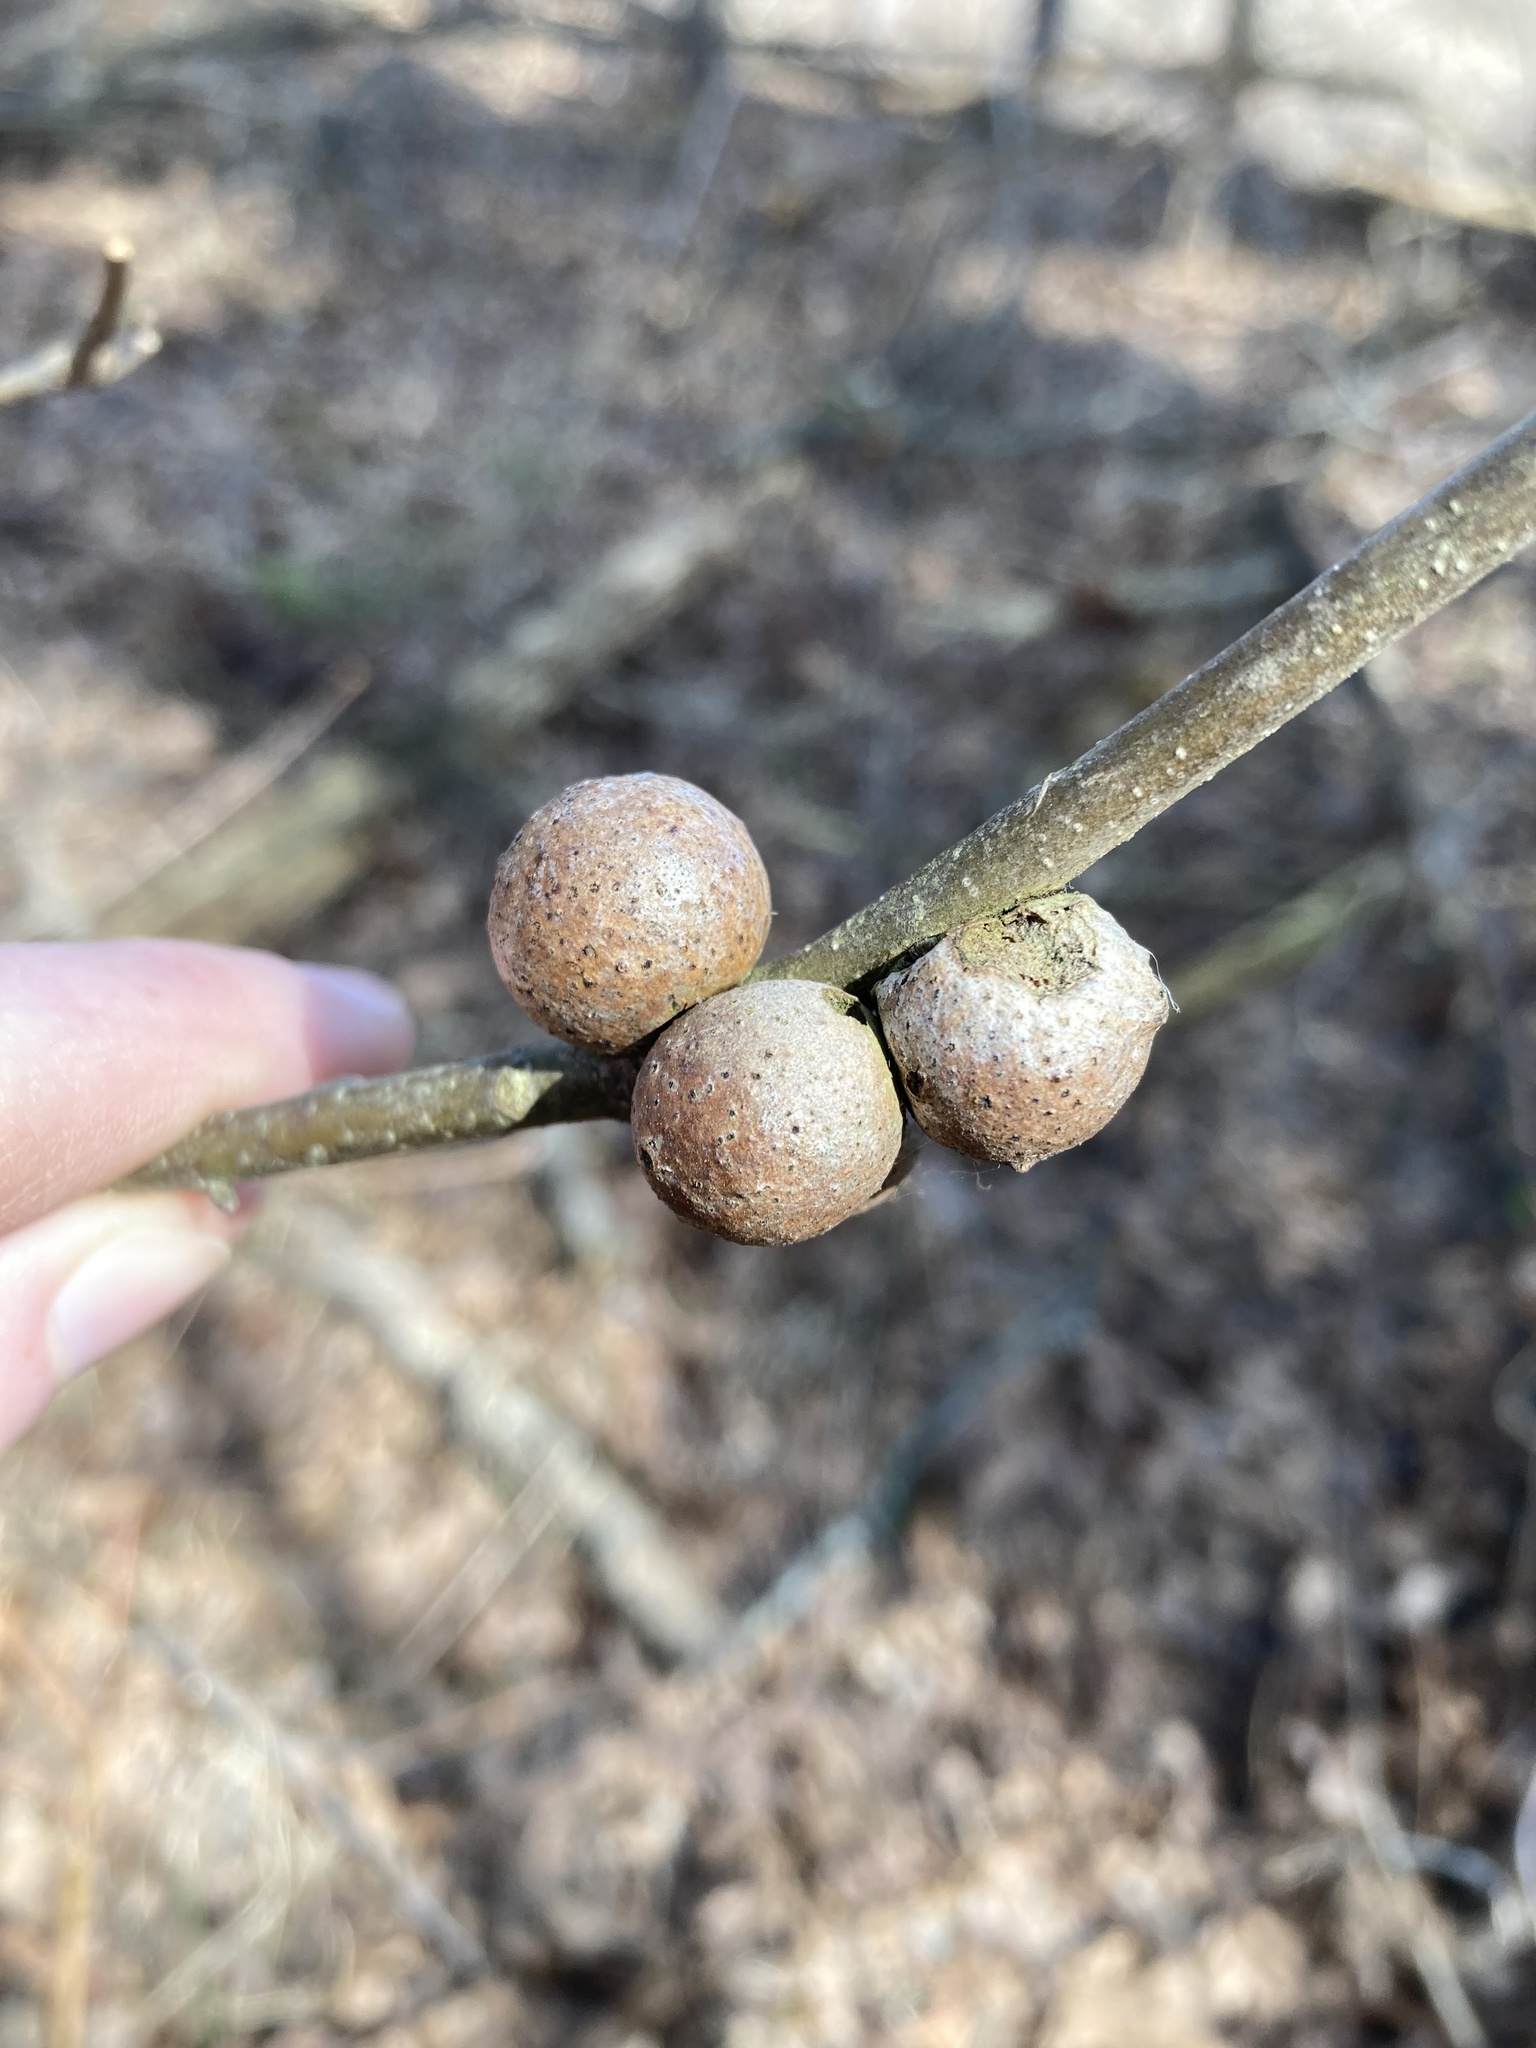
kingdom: Animalia
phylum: Arthropoda
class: Insecta
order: Hymenoptera
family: Cynipidae
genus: Disholcaspis
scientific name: Disholcaspis quercusglobulus
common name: Round bullet gall wasp
